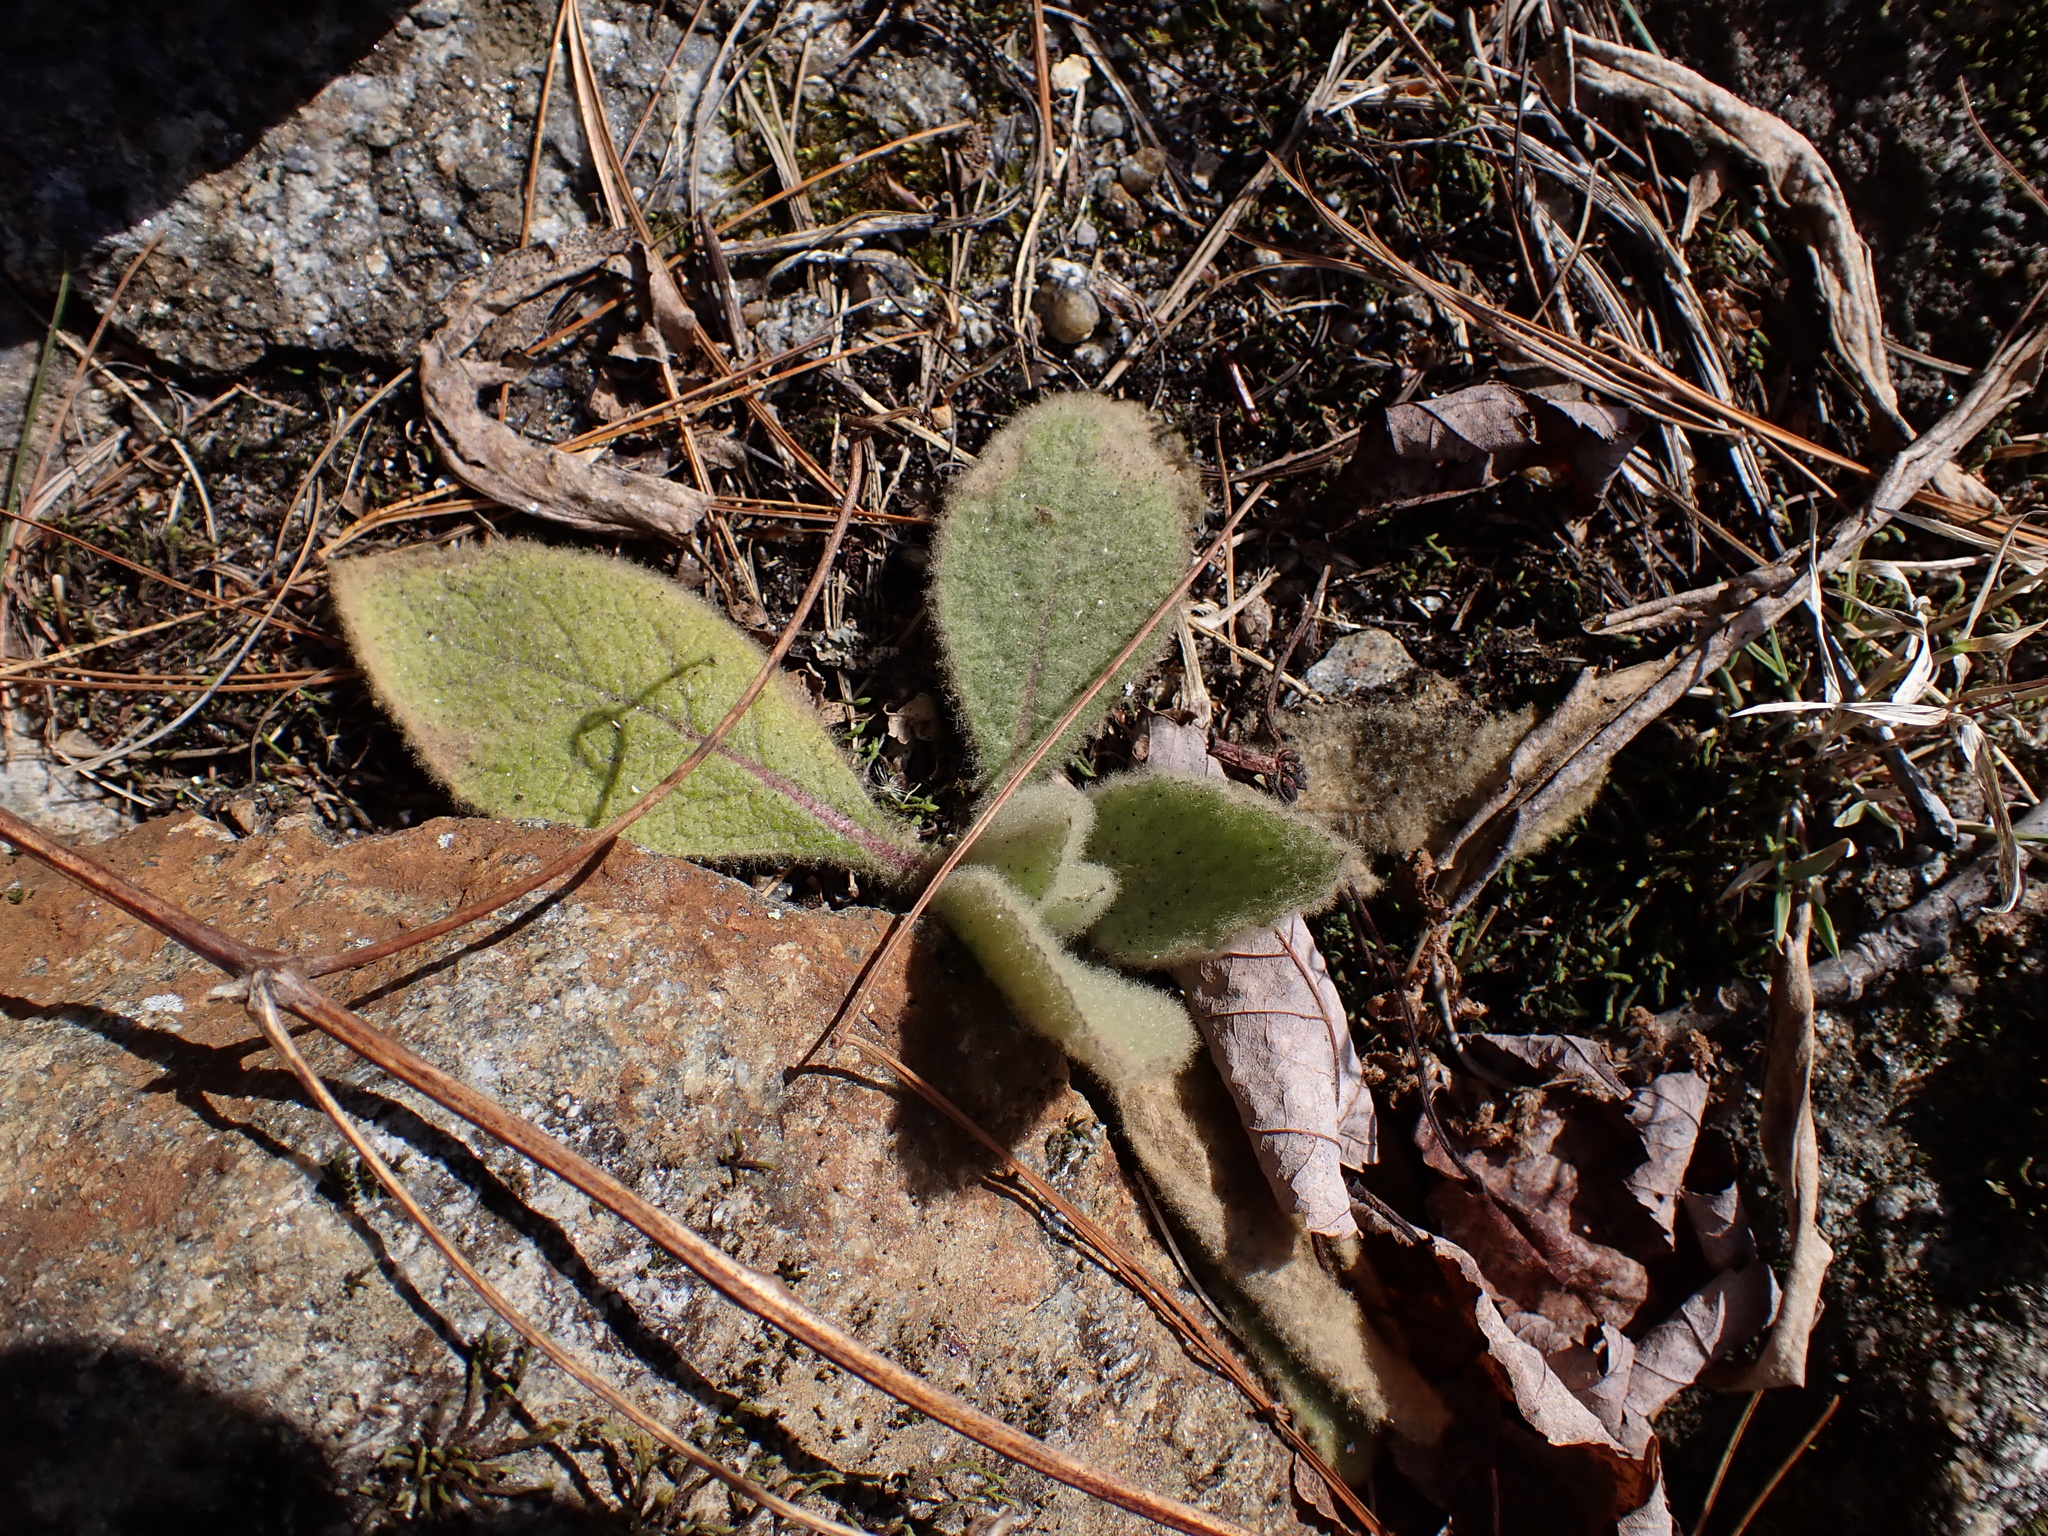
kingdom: Plantae
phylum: Tracheophyta
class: Magnoliopsida
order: Lamiales
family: Scrophulariaceae
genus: Verbascum
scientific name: Verbascum thapsus
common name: Common mullein
